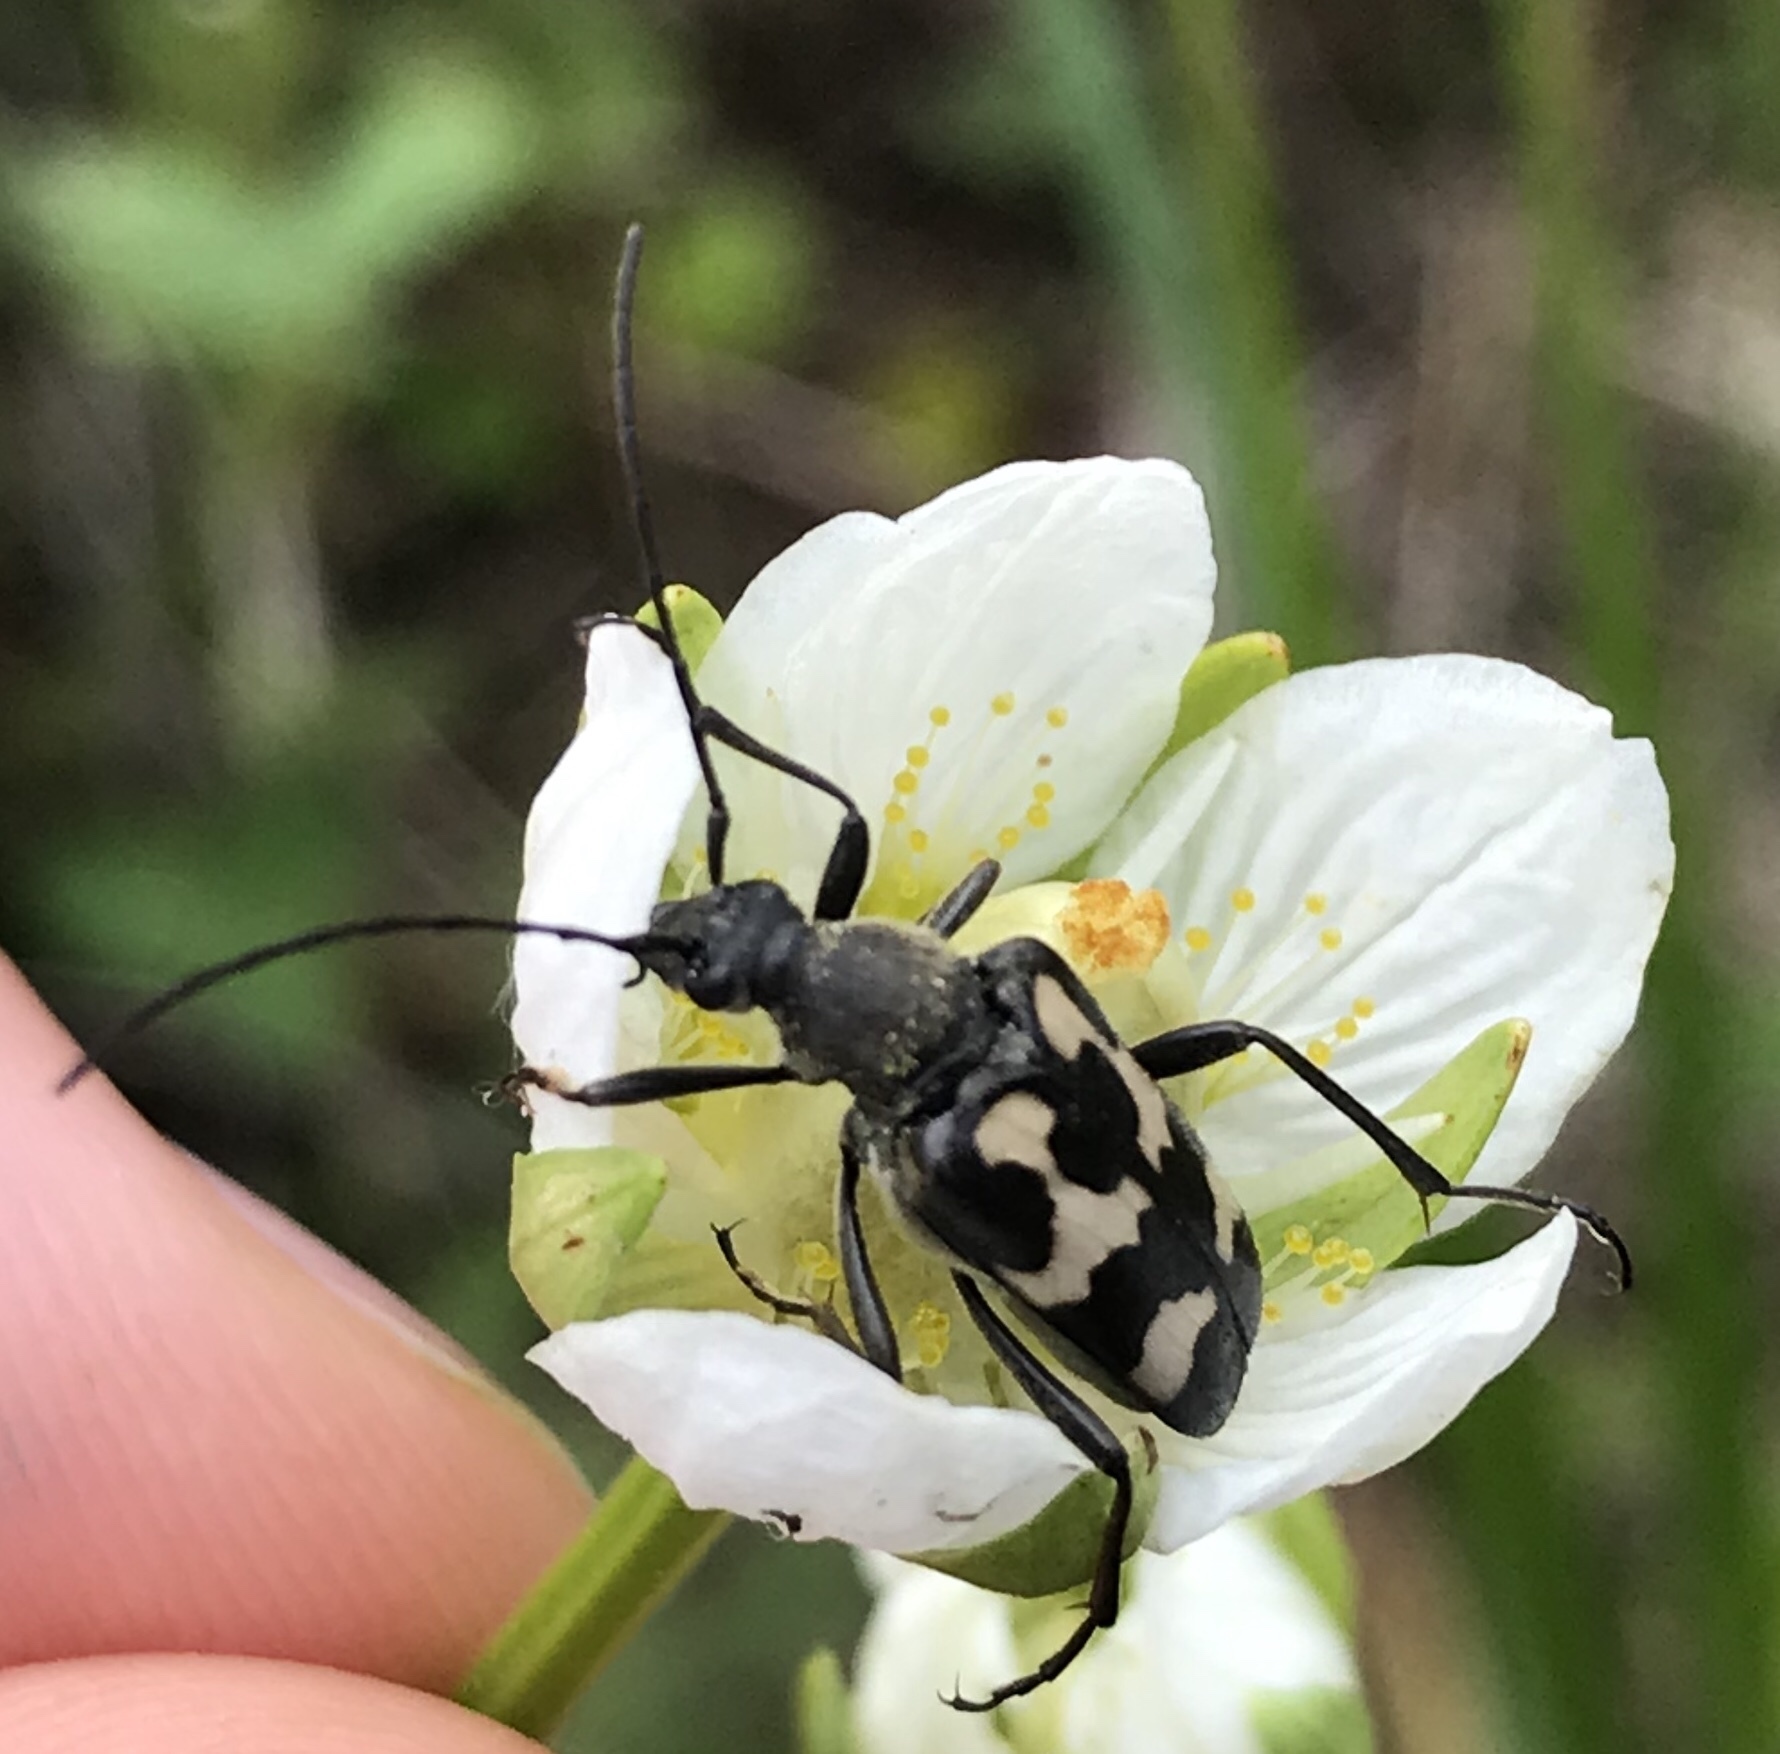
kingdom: Animalia
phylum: Arthropoda
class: Insecta
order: Coleoptera
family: Cerambycidae
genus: Judolia
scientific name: Judolia montivagans
